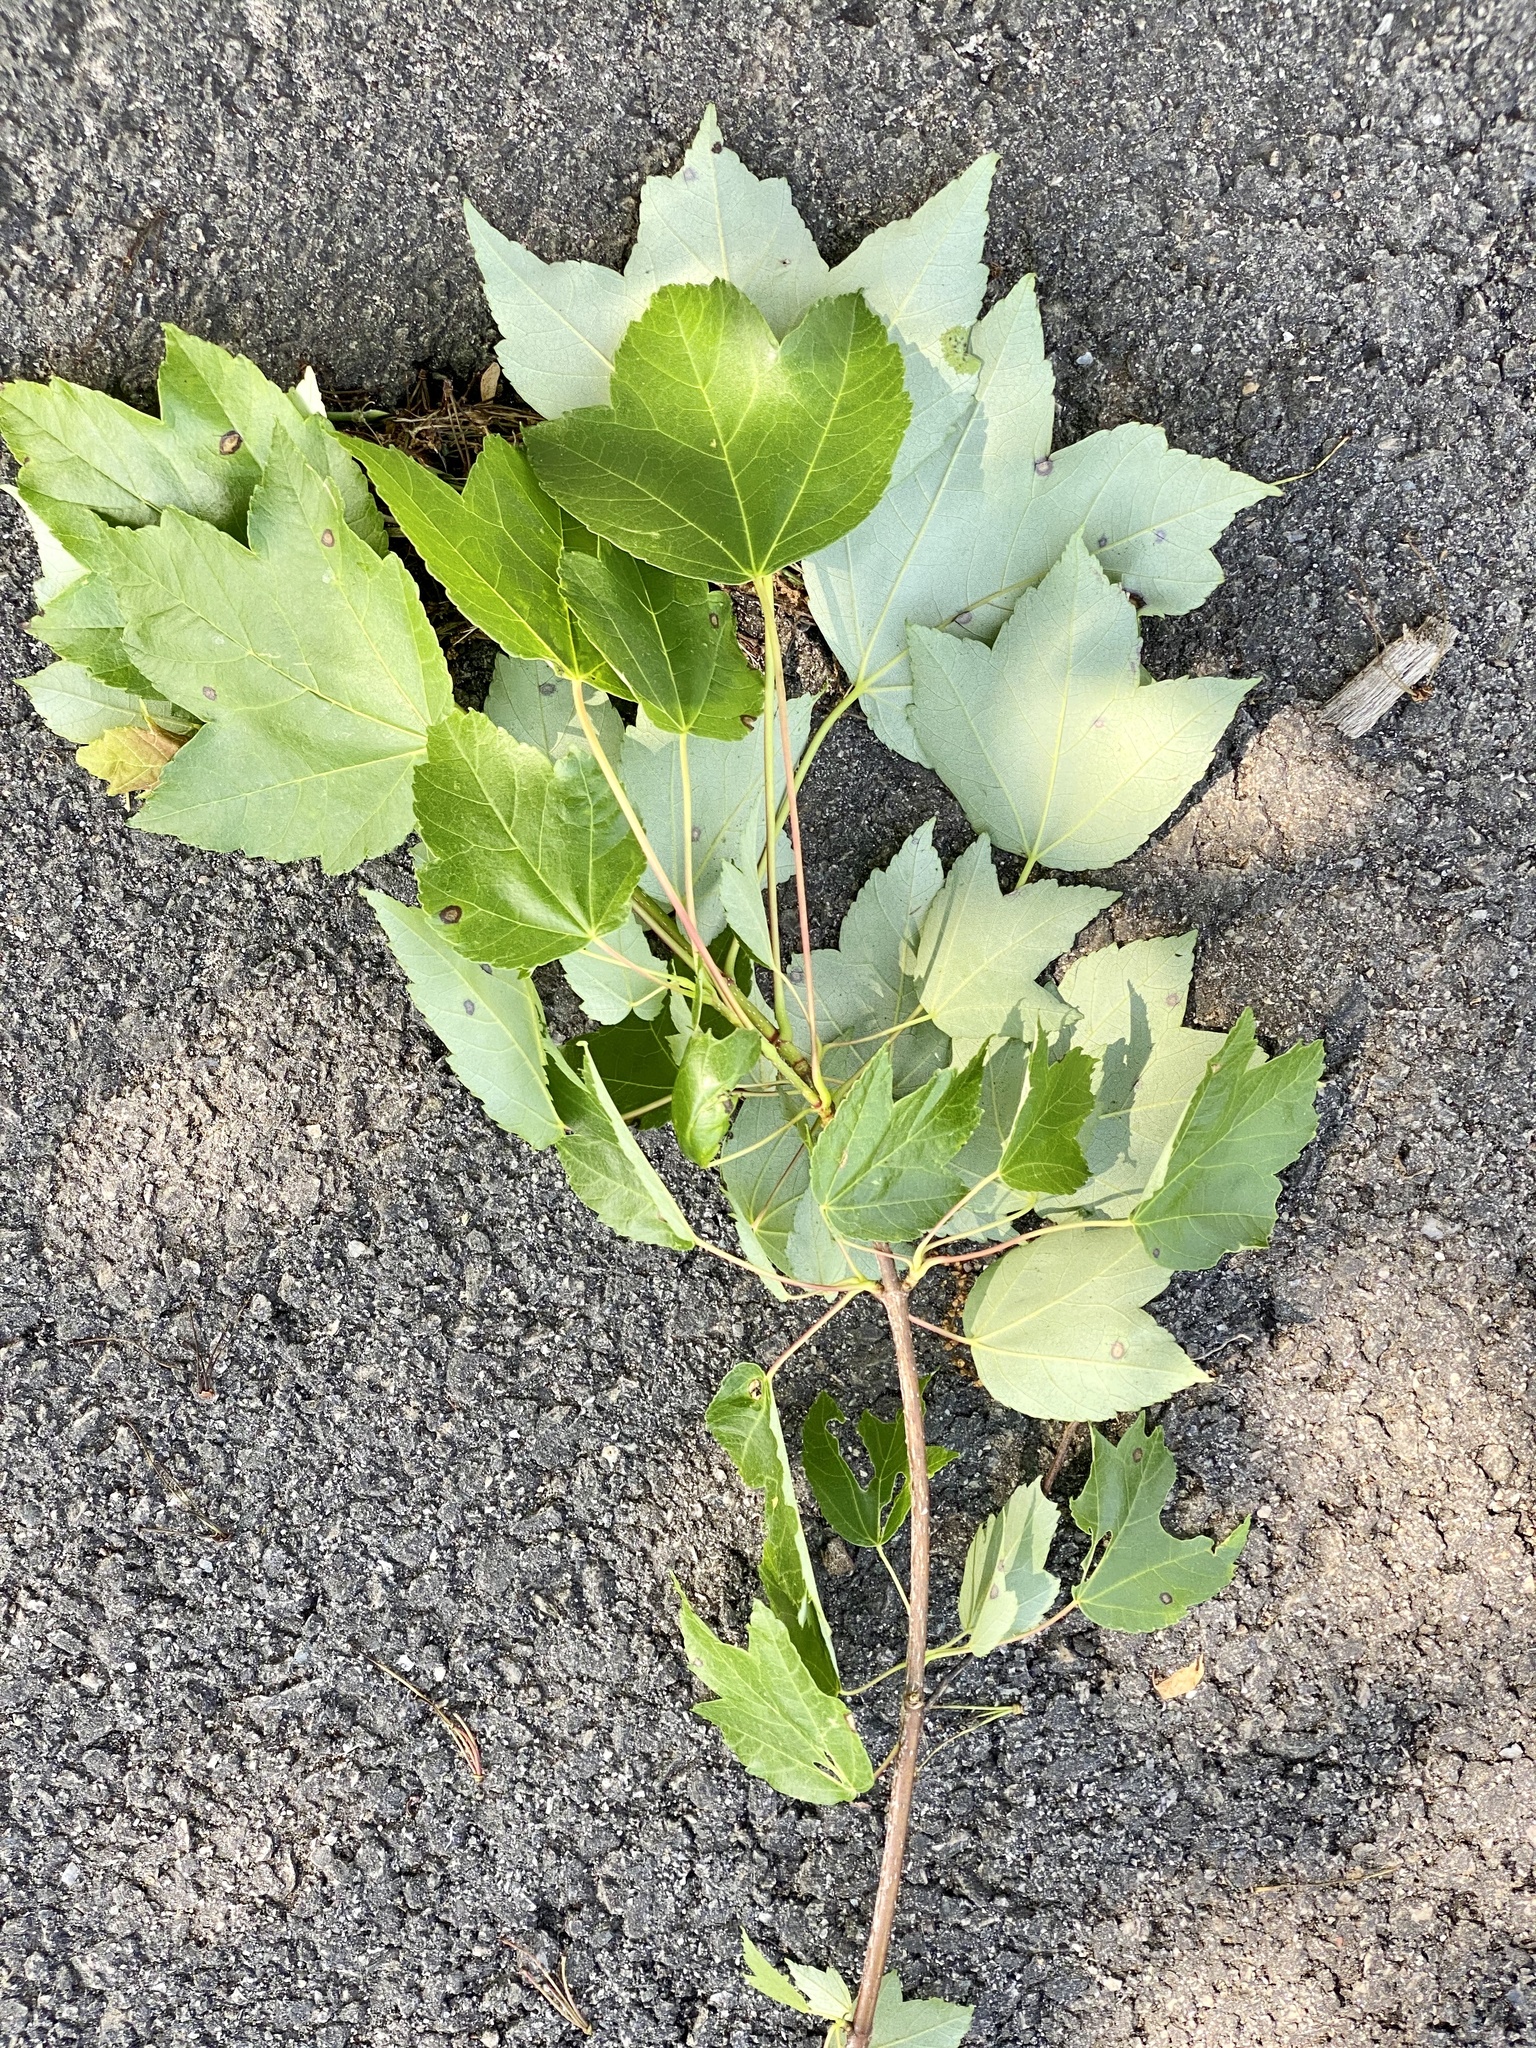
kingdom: Plantae
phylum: Tracheophyta
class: Magnoliopsida
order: Sapindales
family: Sapindaceae
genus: Acer
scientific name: Acer rubrum
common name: Red maple
